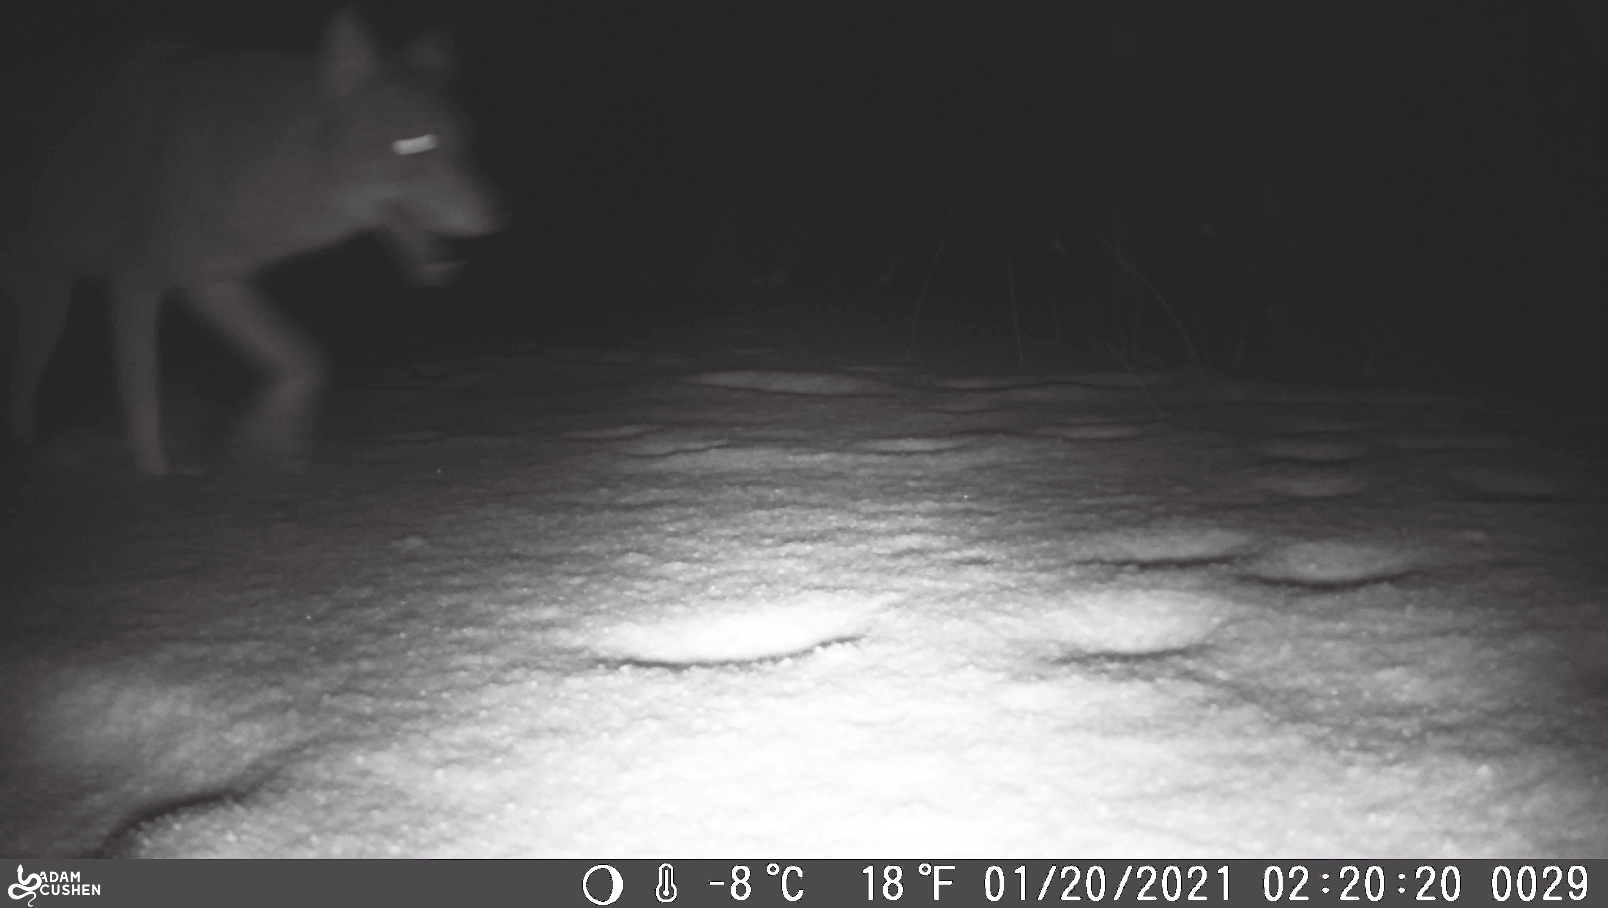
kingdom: Animalia
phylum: Chordata
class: Mammalia
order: Carnivora
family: Canidae
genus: Canis
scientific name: Canis latrans
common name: Coyote
